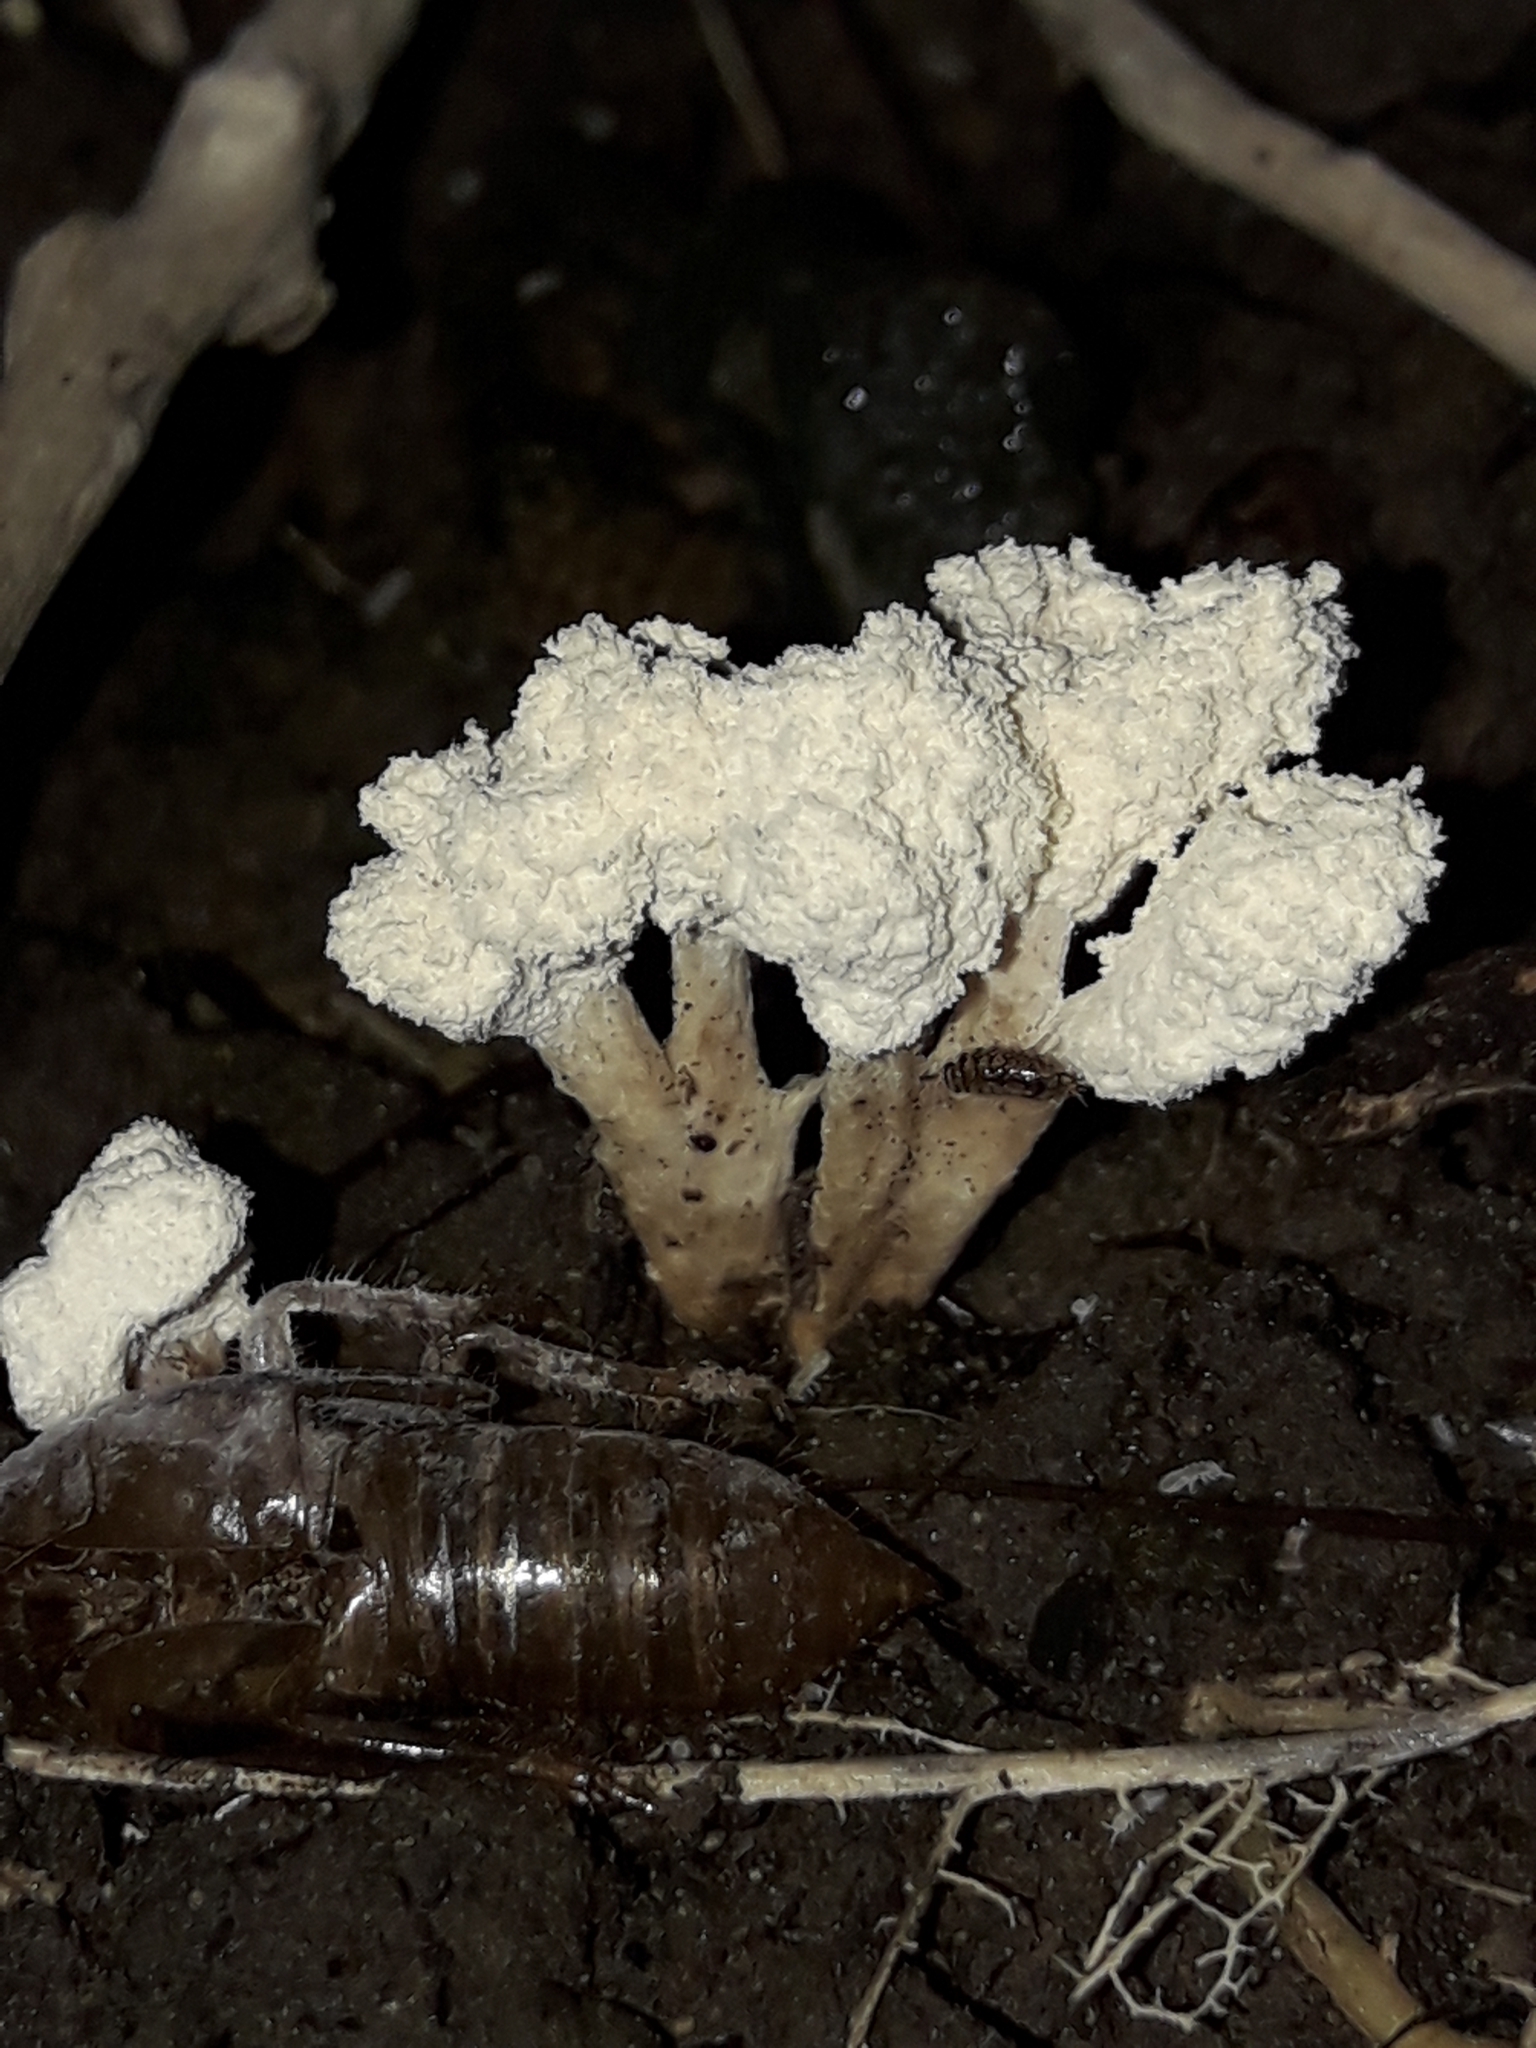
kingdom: Fungi
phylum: Ascomycota
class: Sordariomycetes
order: Hypocreales
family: Cordycipitaceae
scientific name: Cordycipitaceae
